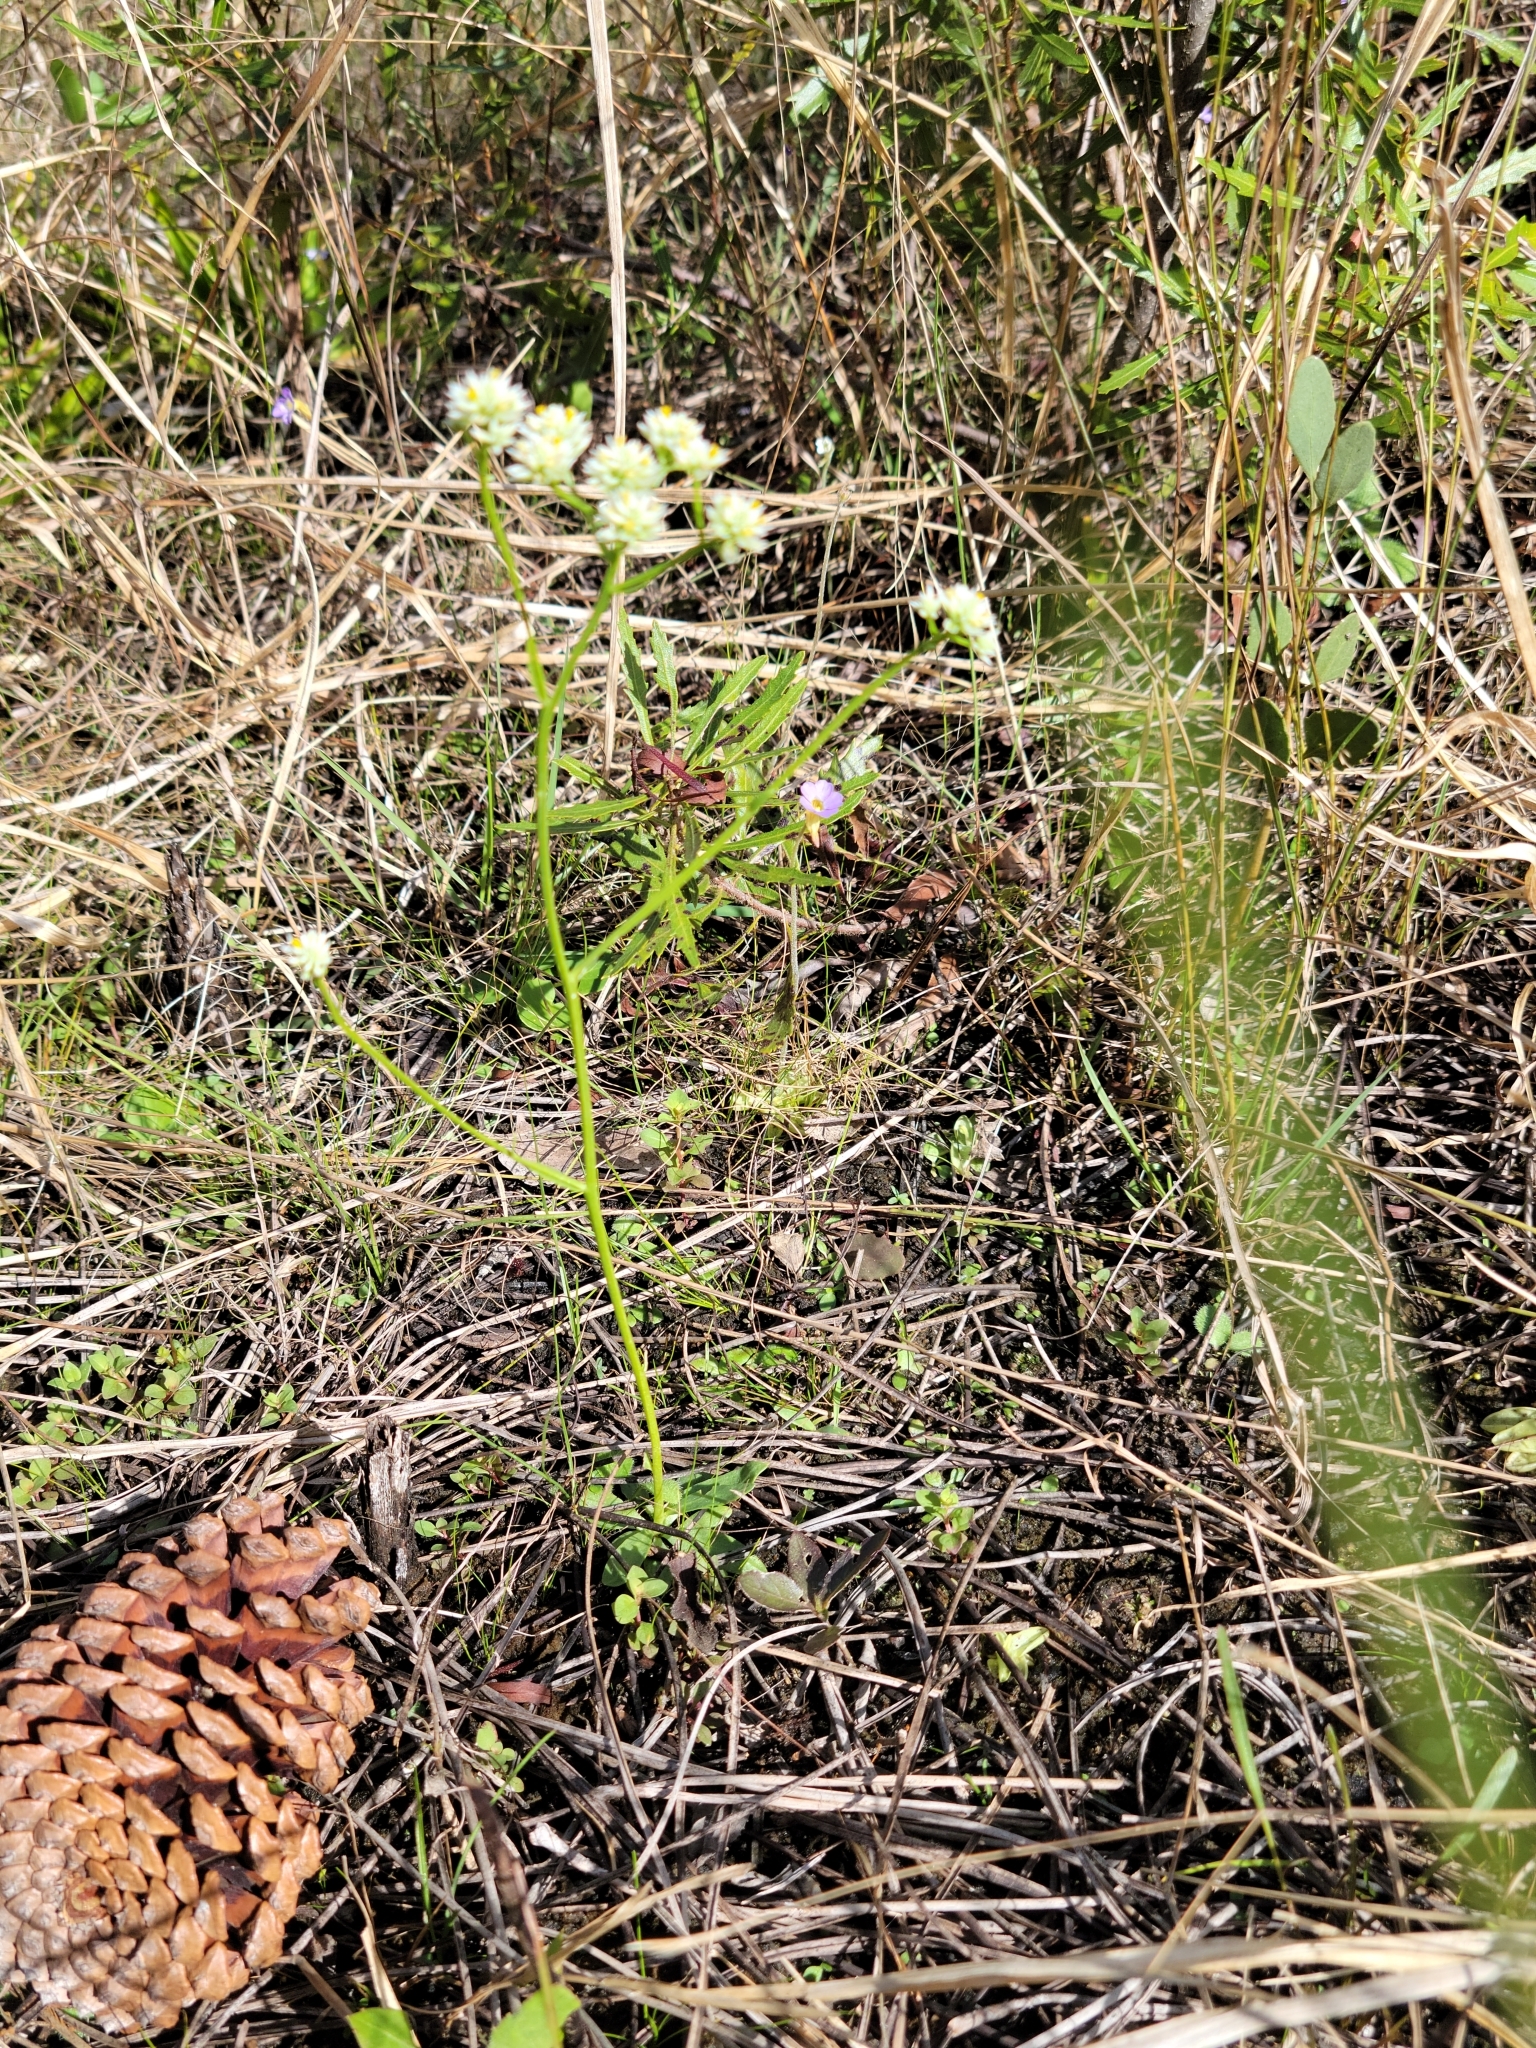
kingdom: Plantae
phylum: Tracheophyta
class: Magnoliopsida
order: Fabales
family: Polygalaceae
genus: Polygala
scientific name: Polygala baldwinii
